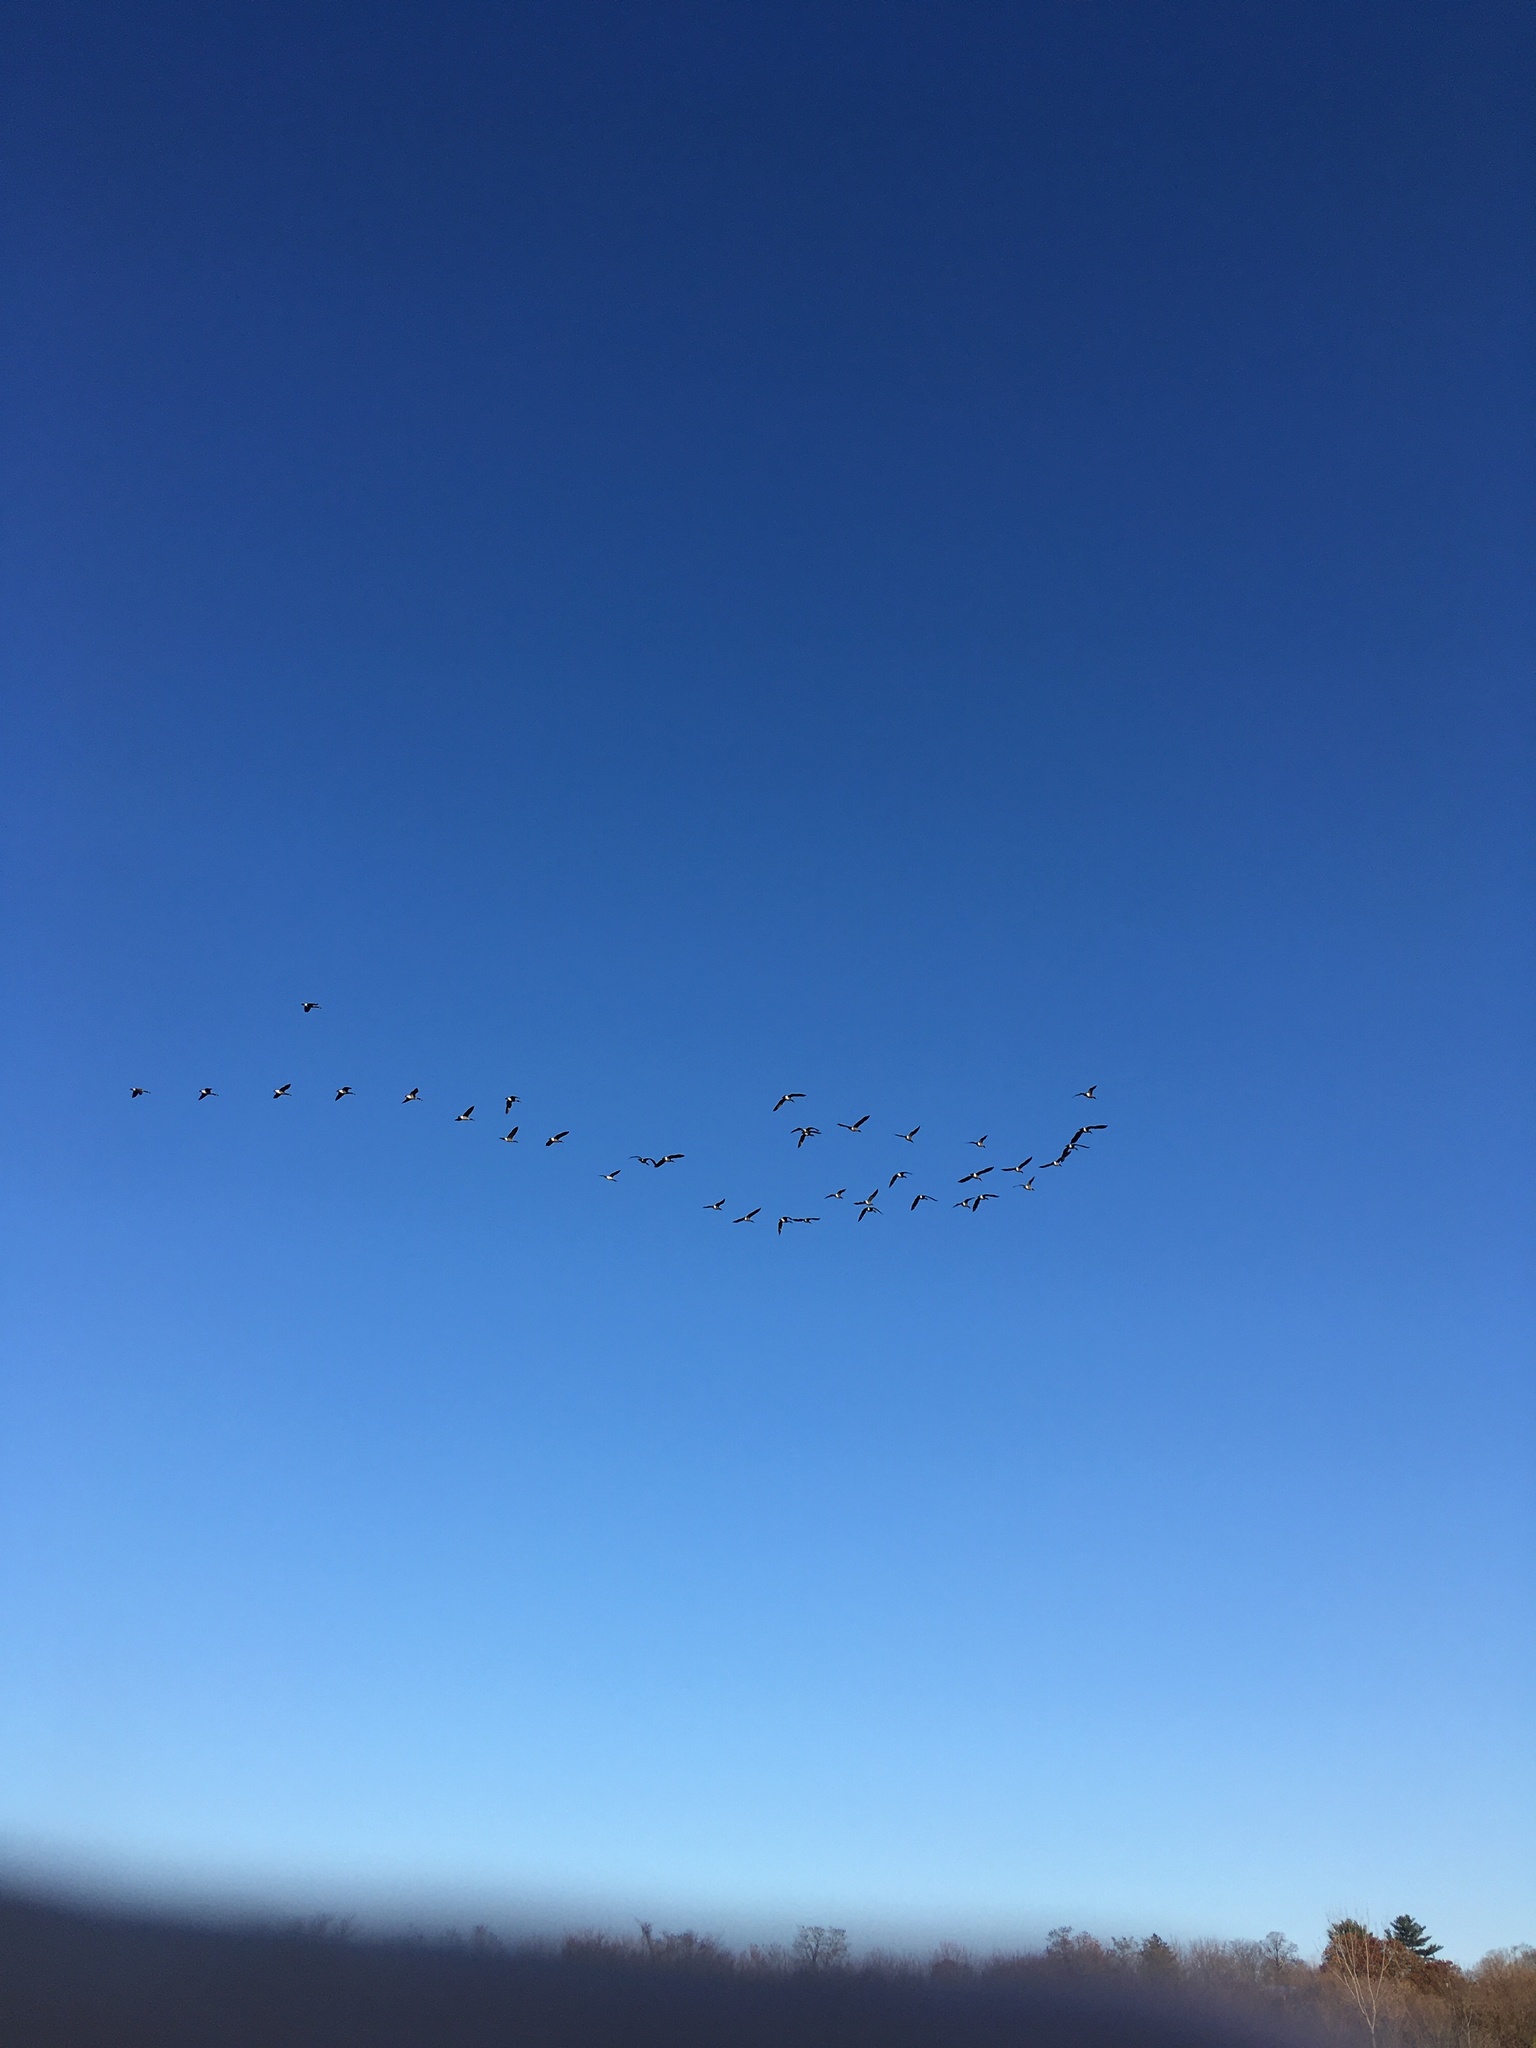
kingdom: Animalia
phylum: Chordata
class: Aves
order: Anseriformes
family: Anatidae
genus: Branta
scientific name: Branta canadensis
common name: Canada goose
